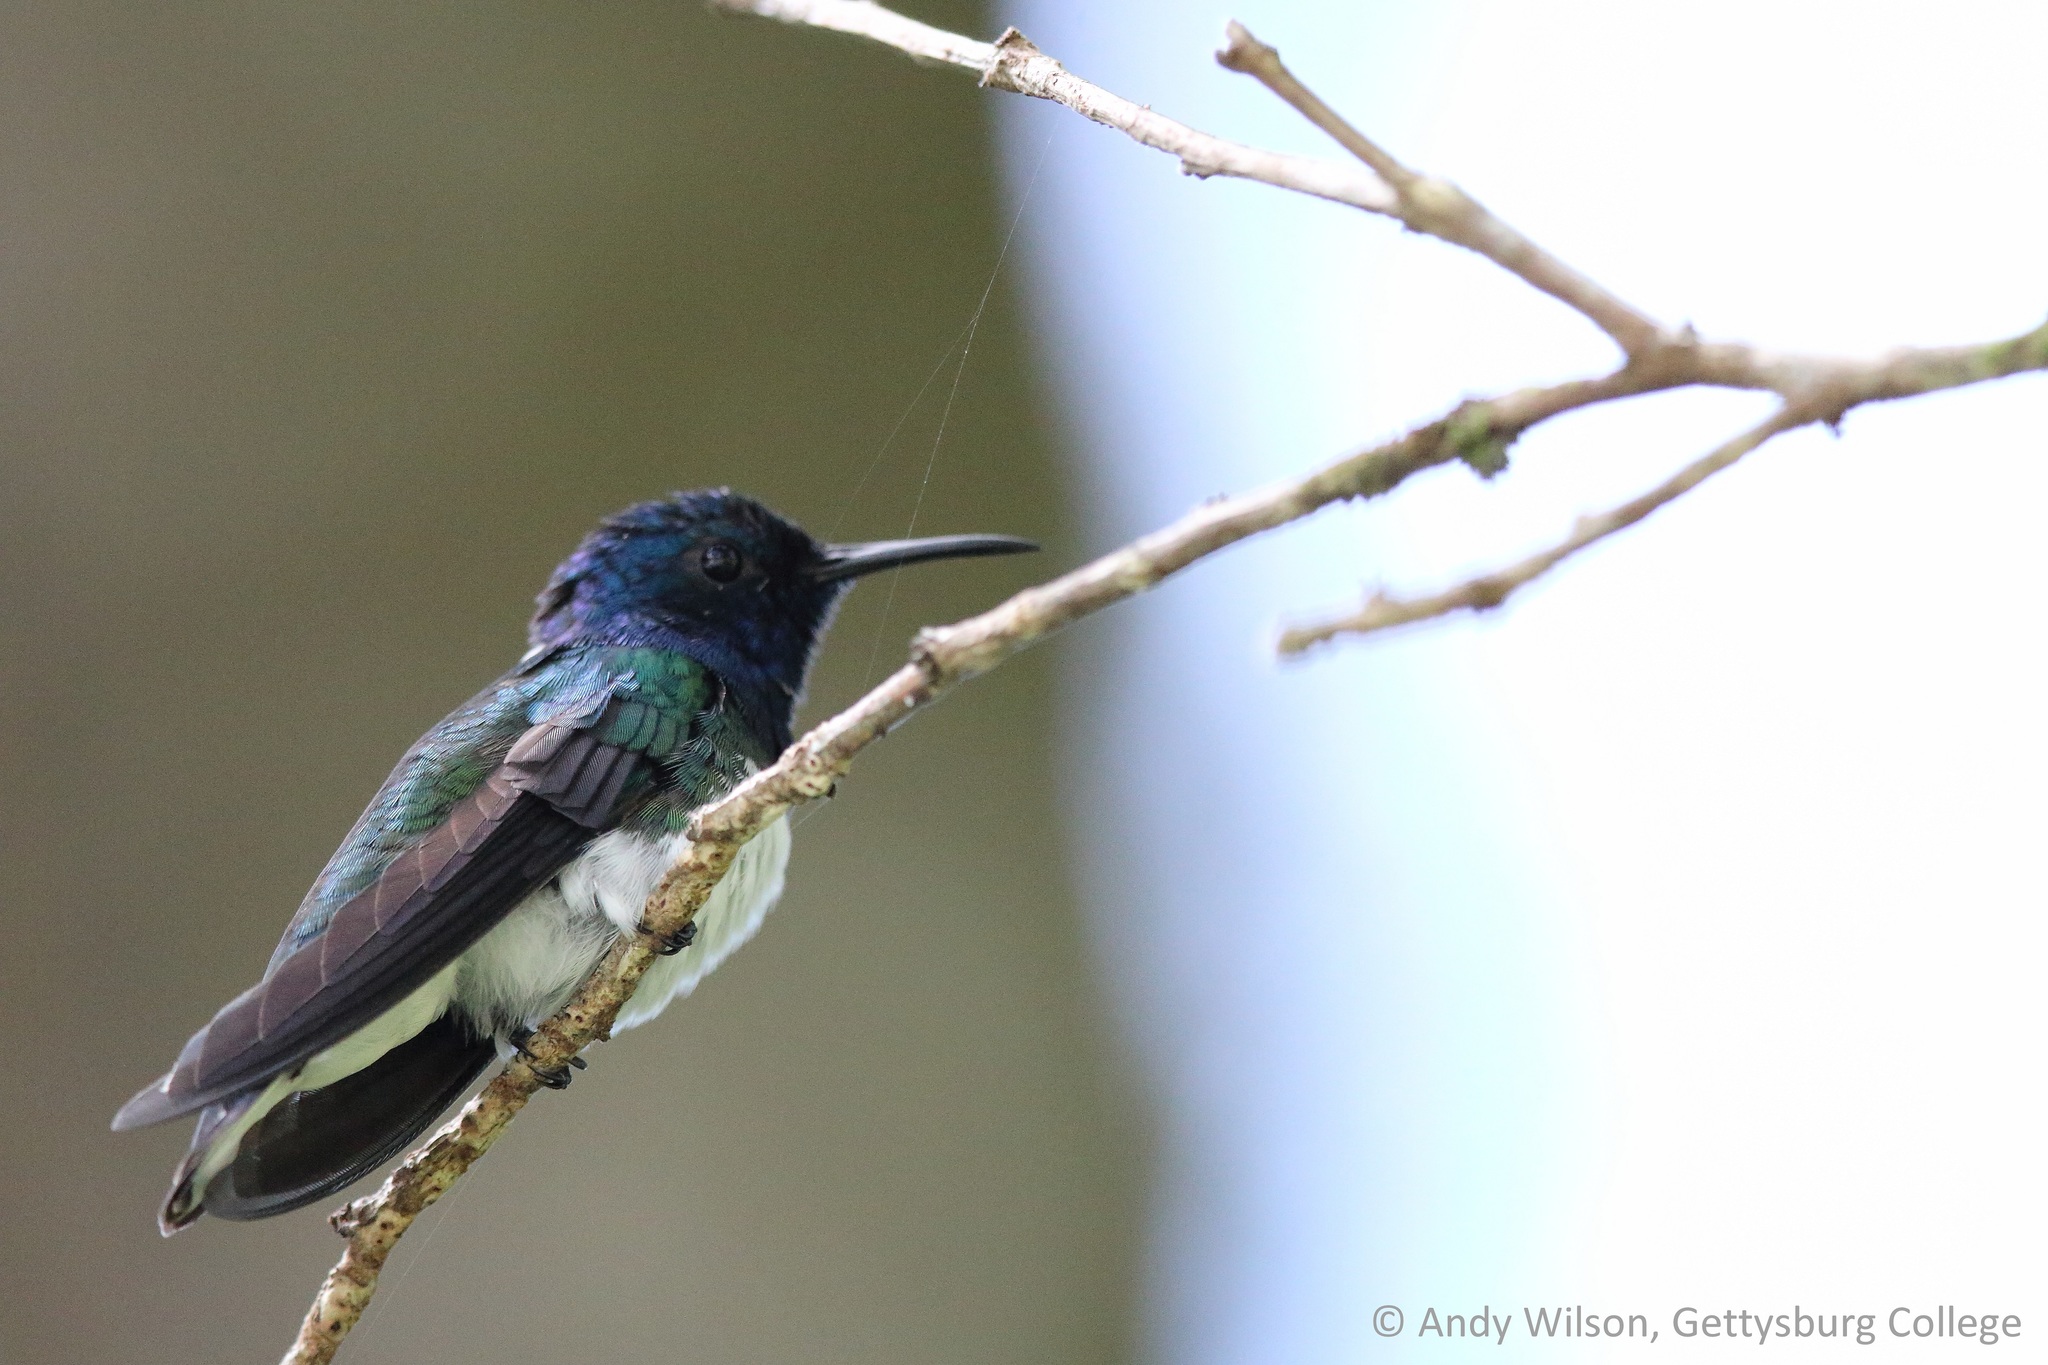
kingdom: Animalia
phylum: Chordata
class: Aves
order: Apodiformes
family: Trochilidae
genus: Florisuga
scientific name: Florisuga mellivora
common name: White-necked jacobin
